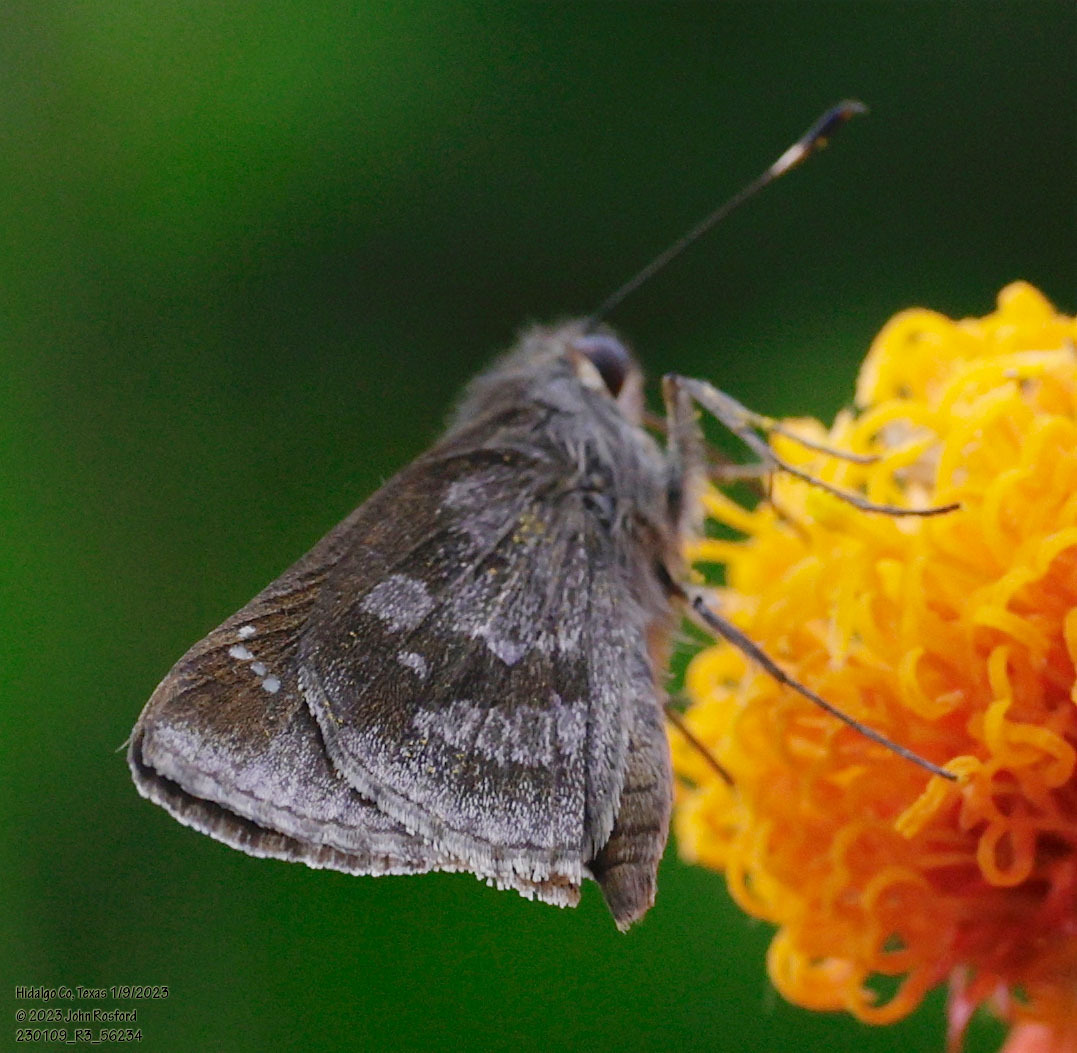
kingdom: Animalia
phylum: Arthropoda
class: Insecta
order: Lepidoptera
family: Hesperiidae
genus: Cymaenes
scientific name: Cymaenes
